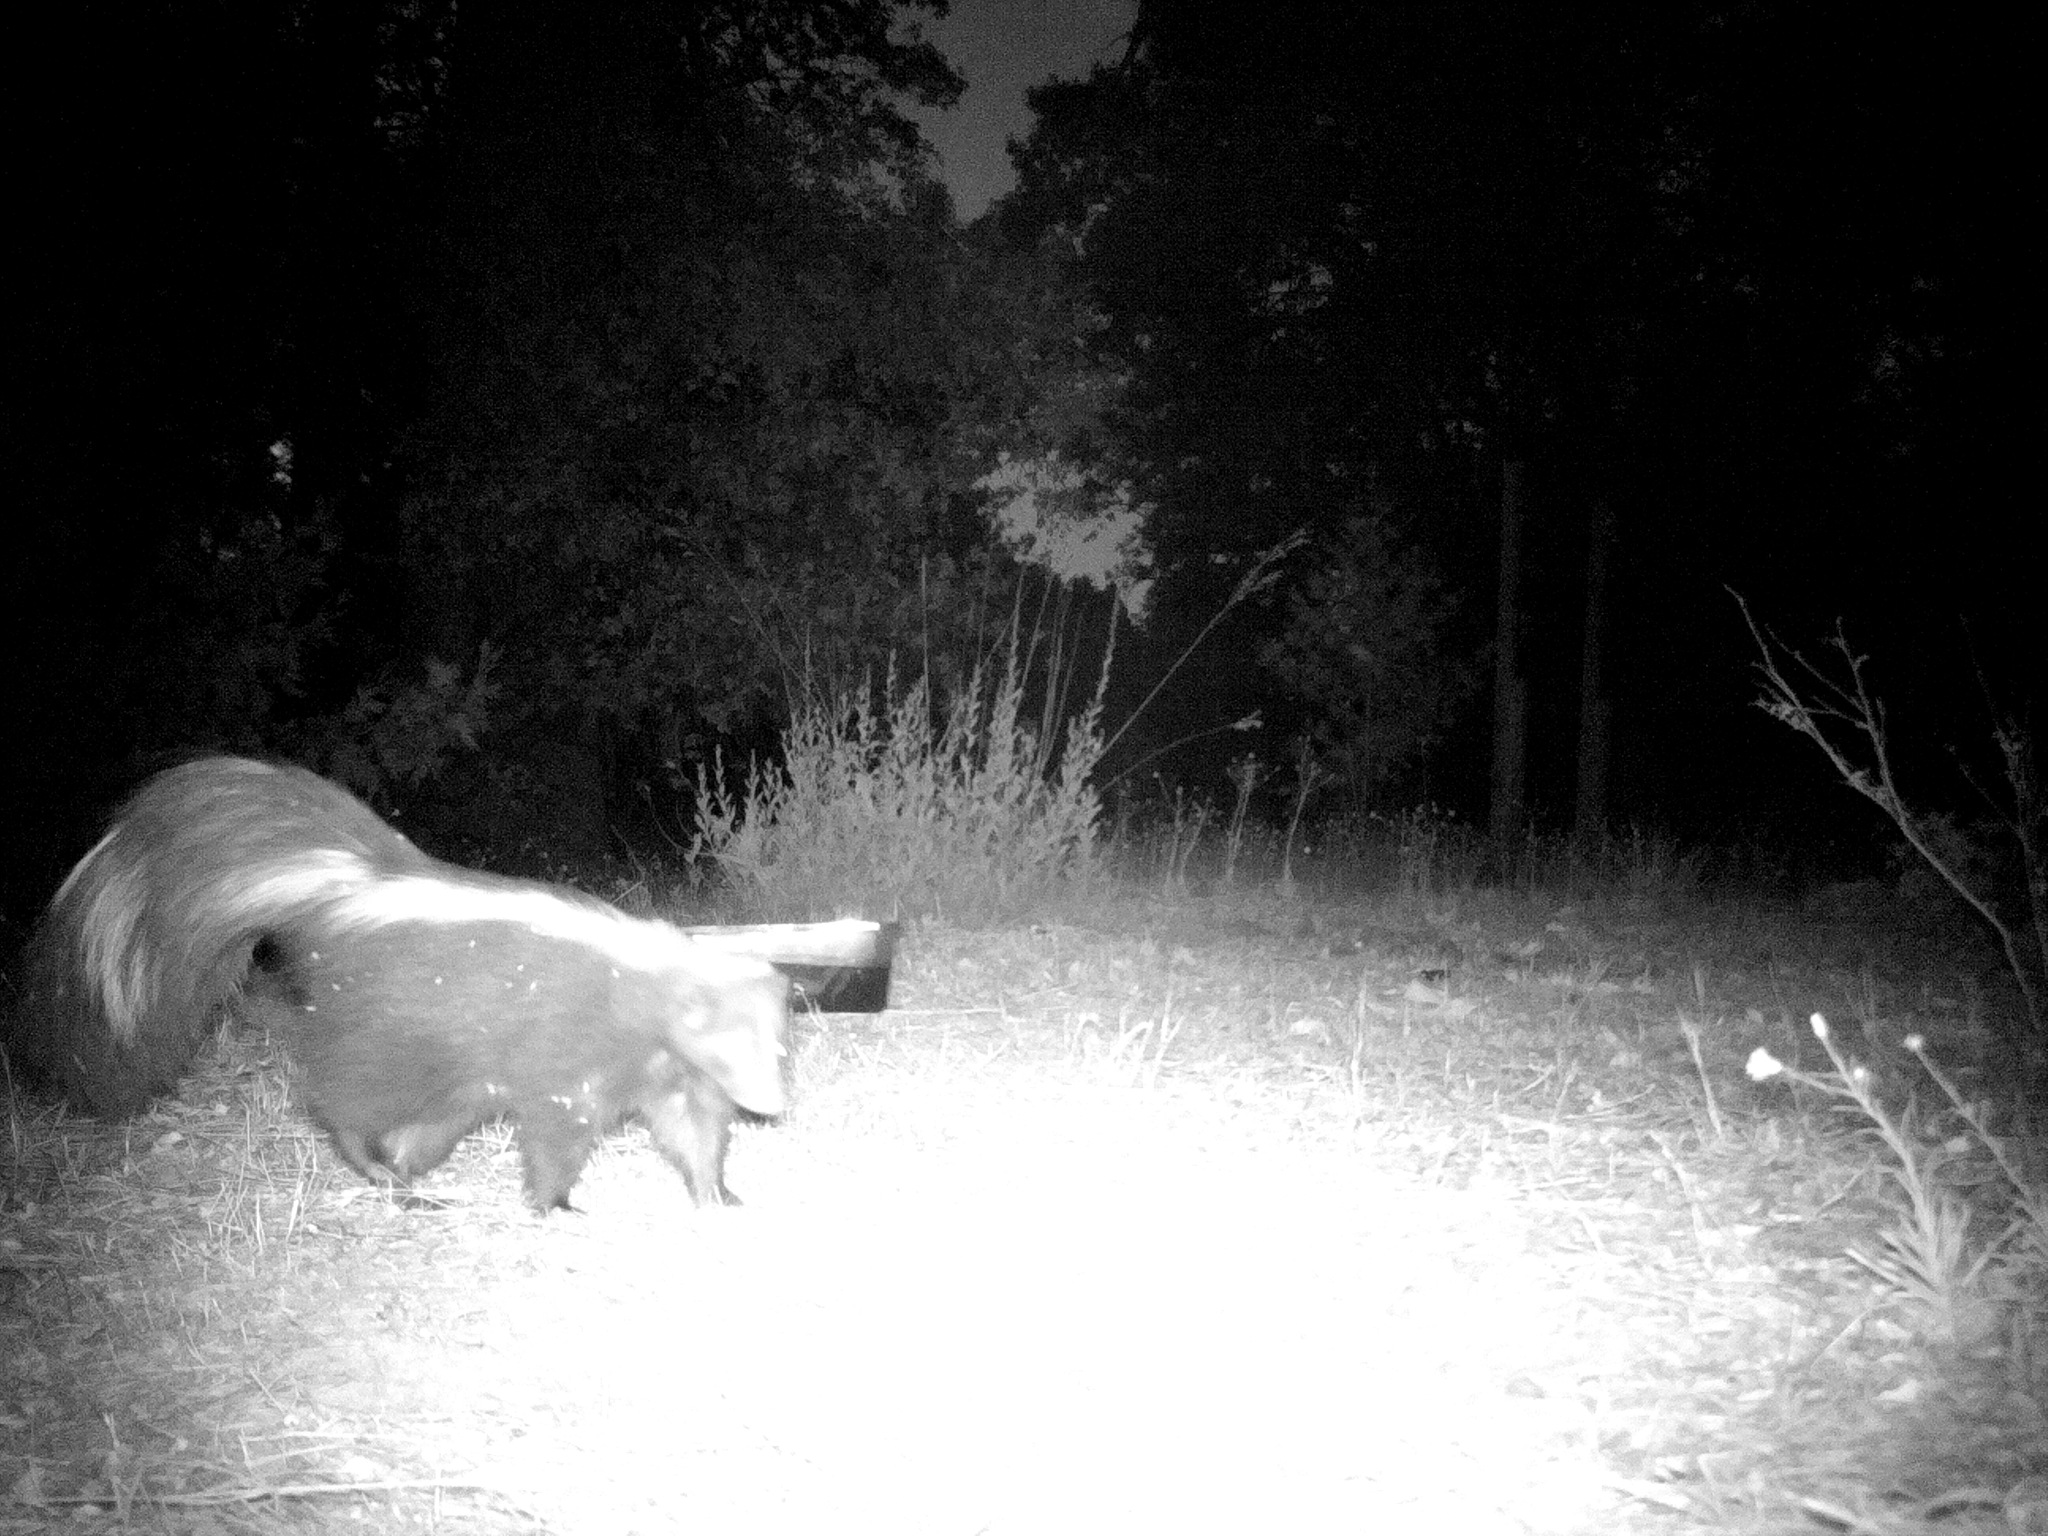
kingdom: Animalia
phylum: Chordata
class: Mammalia
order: Carnivora
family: Mephitidae
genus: Mephitis
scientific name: Mephitis mephitis
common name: Striped skunk
